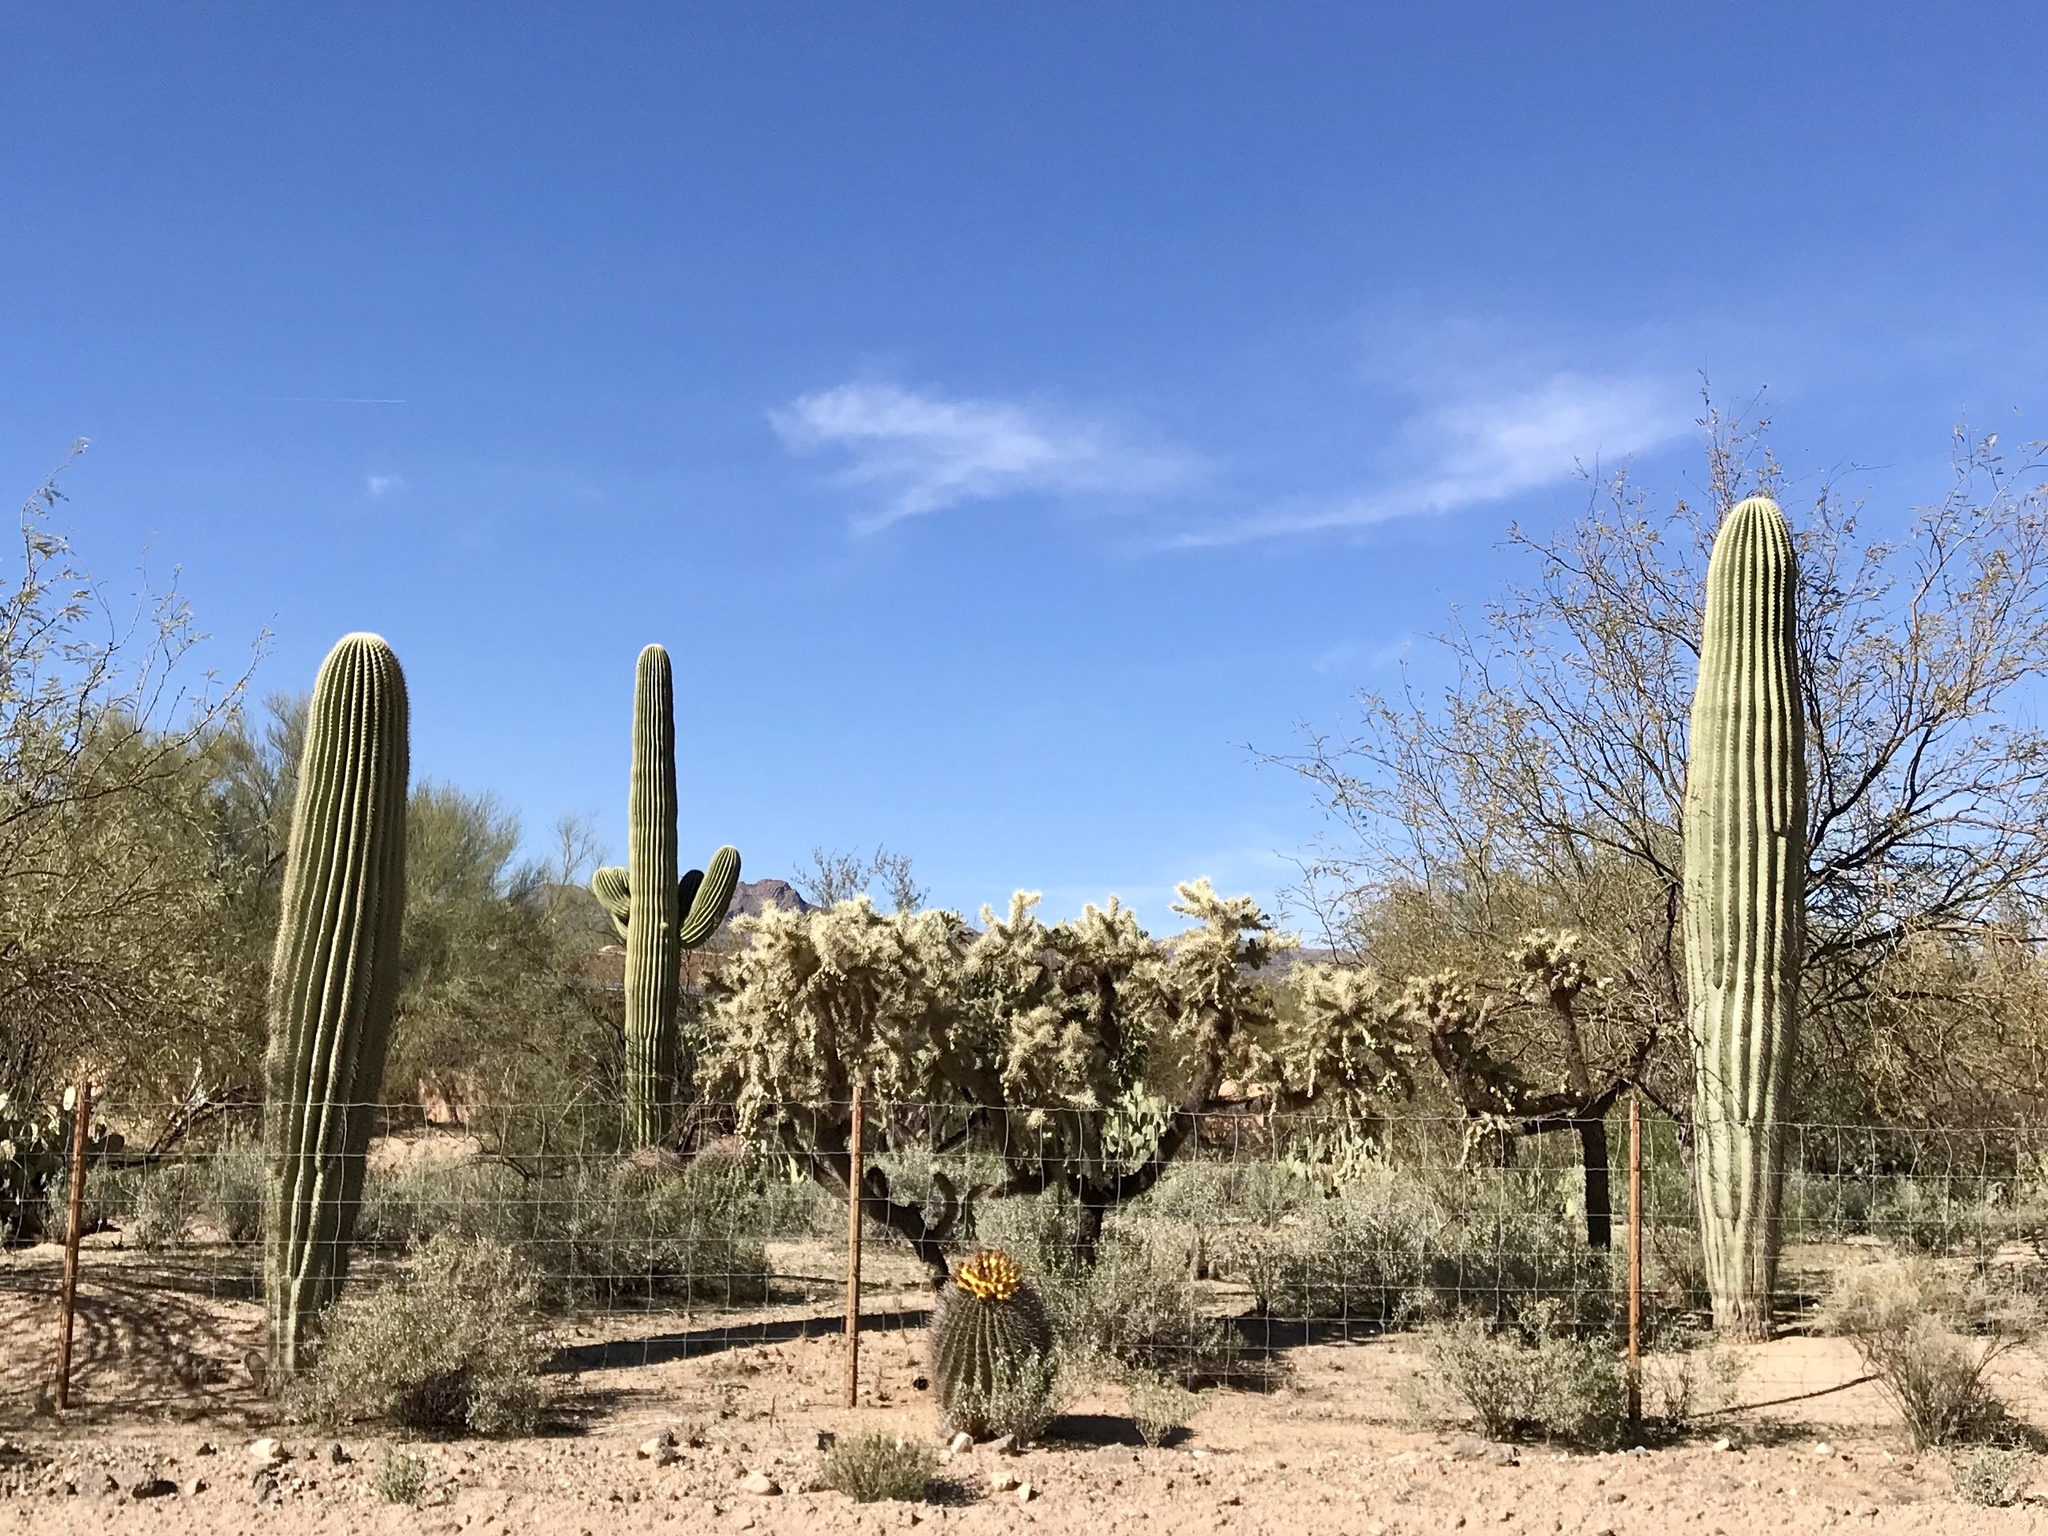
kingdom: Plantae
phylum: Tracheophyta
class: Magnoliopsida
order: Caryophyllales
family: Cactaceae
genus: Carnegiea
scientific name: Carnegiea gigantea
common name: Saguaro
